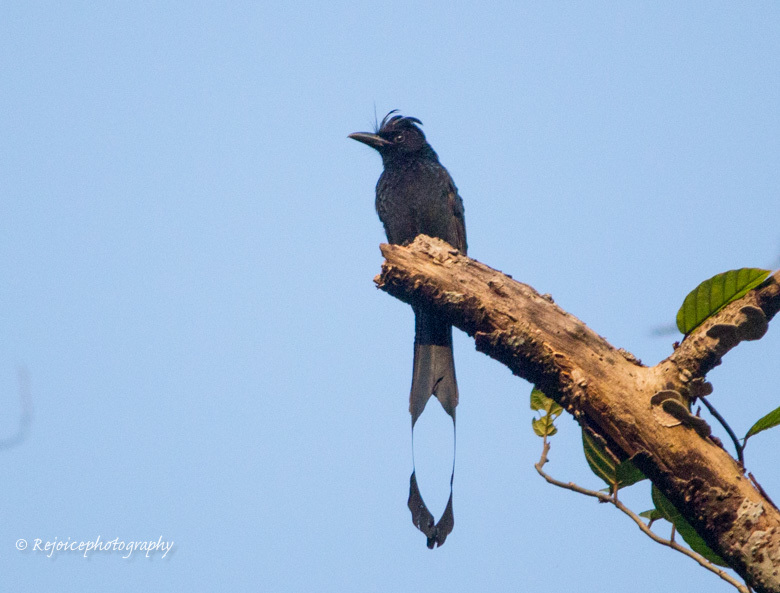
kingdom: Animalia
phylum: Chordata
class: Aves
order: Passeriformes
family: Dicruridae
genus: Dicrurus
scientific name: Dicrurus paradiseus
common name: Greater racket-tailed drongo
